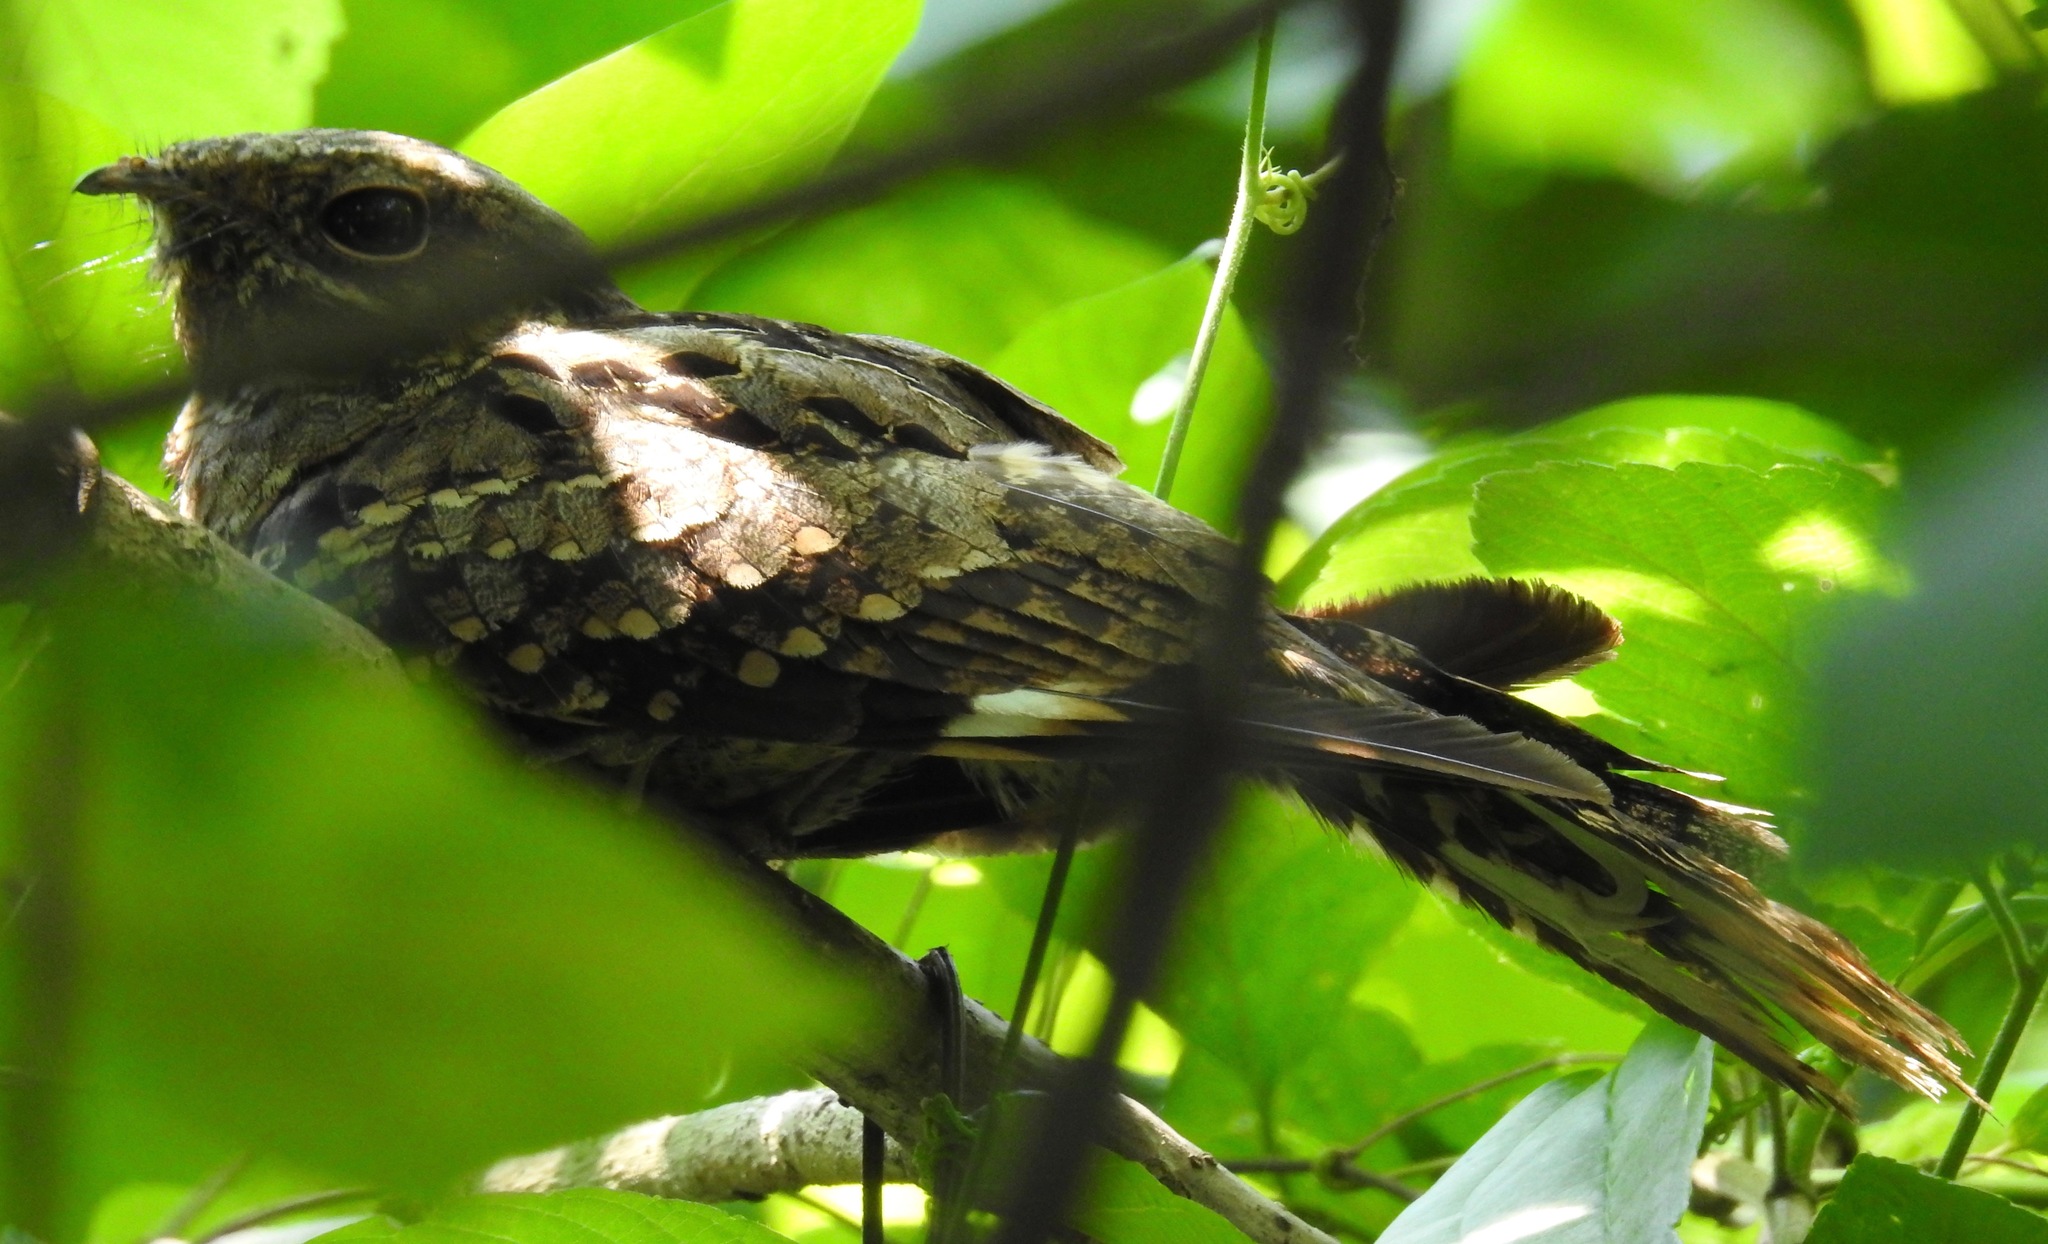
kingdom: Animalia
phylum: Chordata
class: Aves
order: Caprimulgiformes
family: Caprimulgidae
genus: Nyctidromus
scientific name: Nyctidromus albicollis
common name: Pauraque
